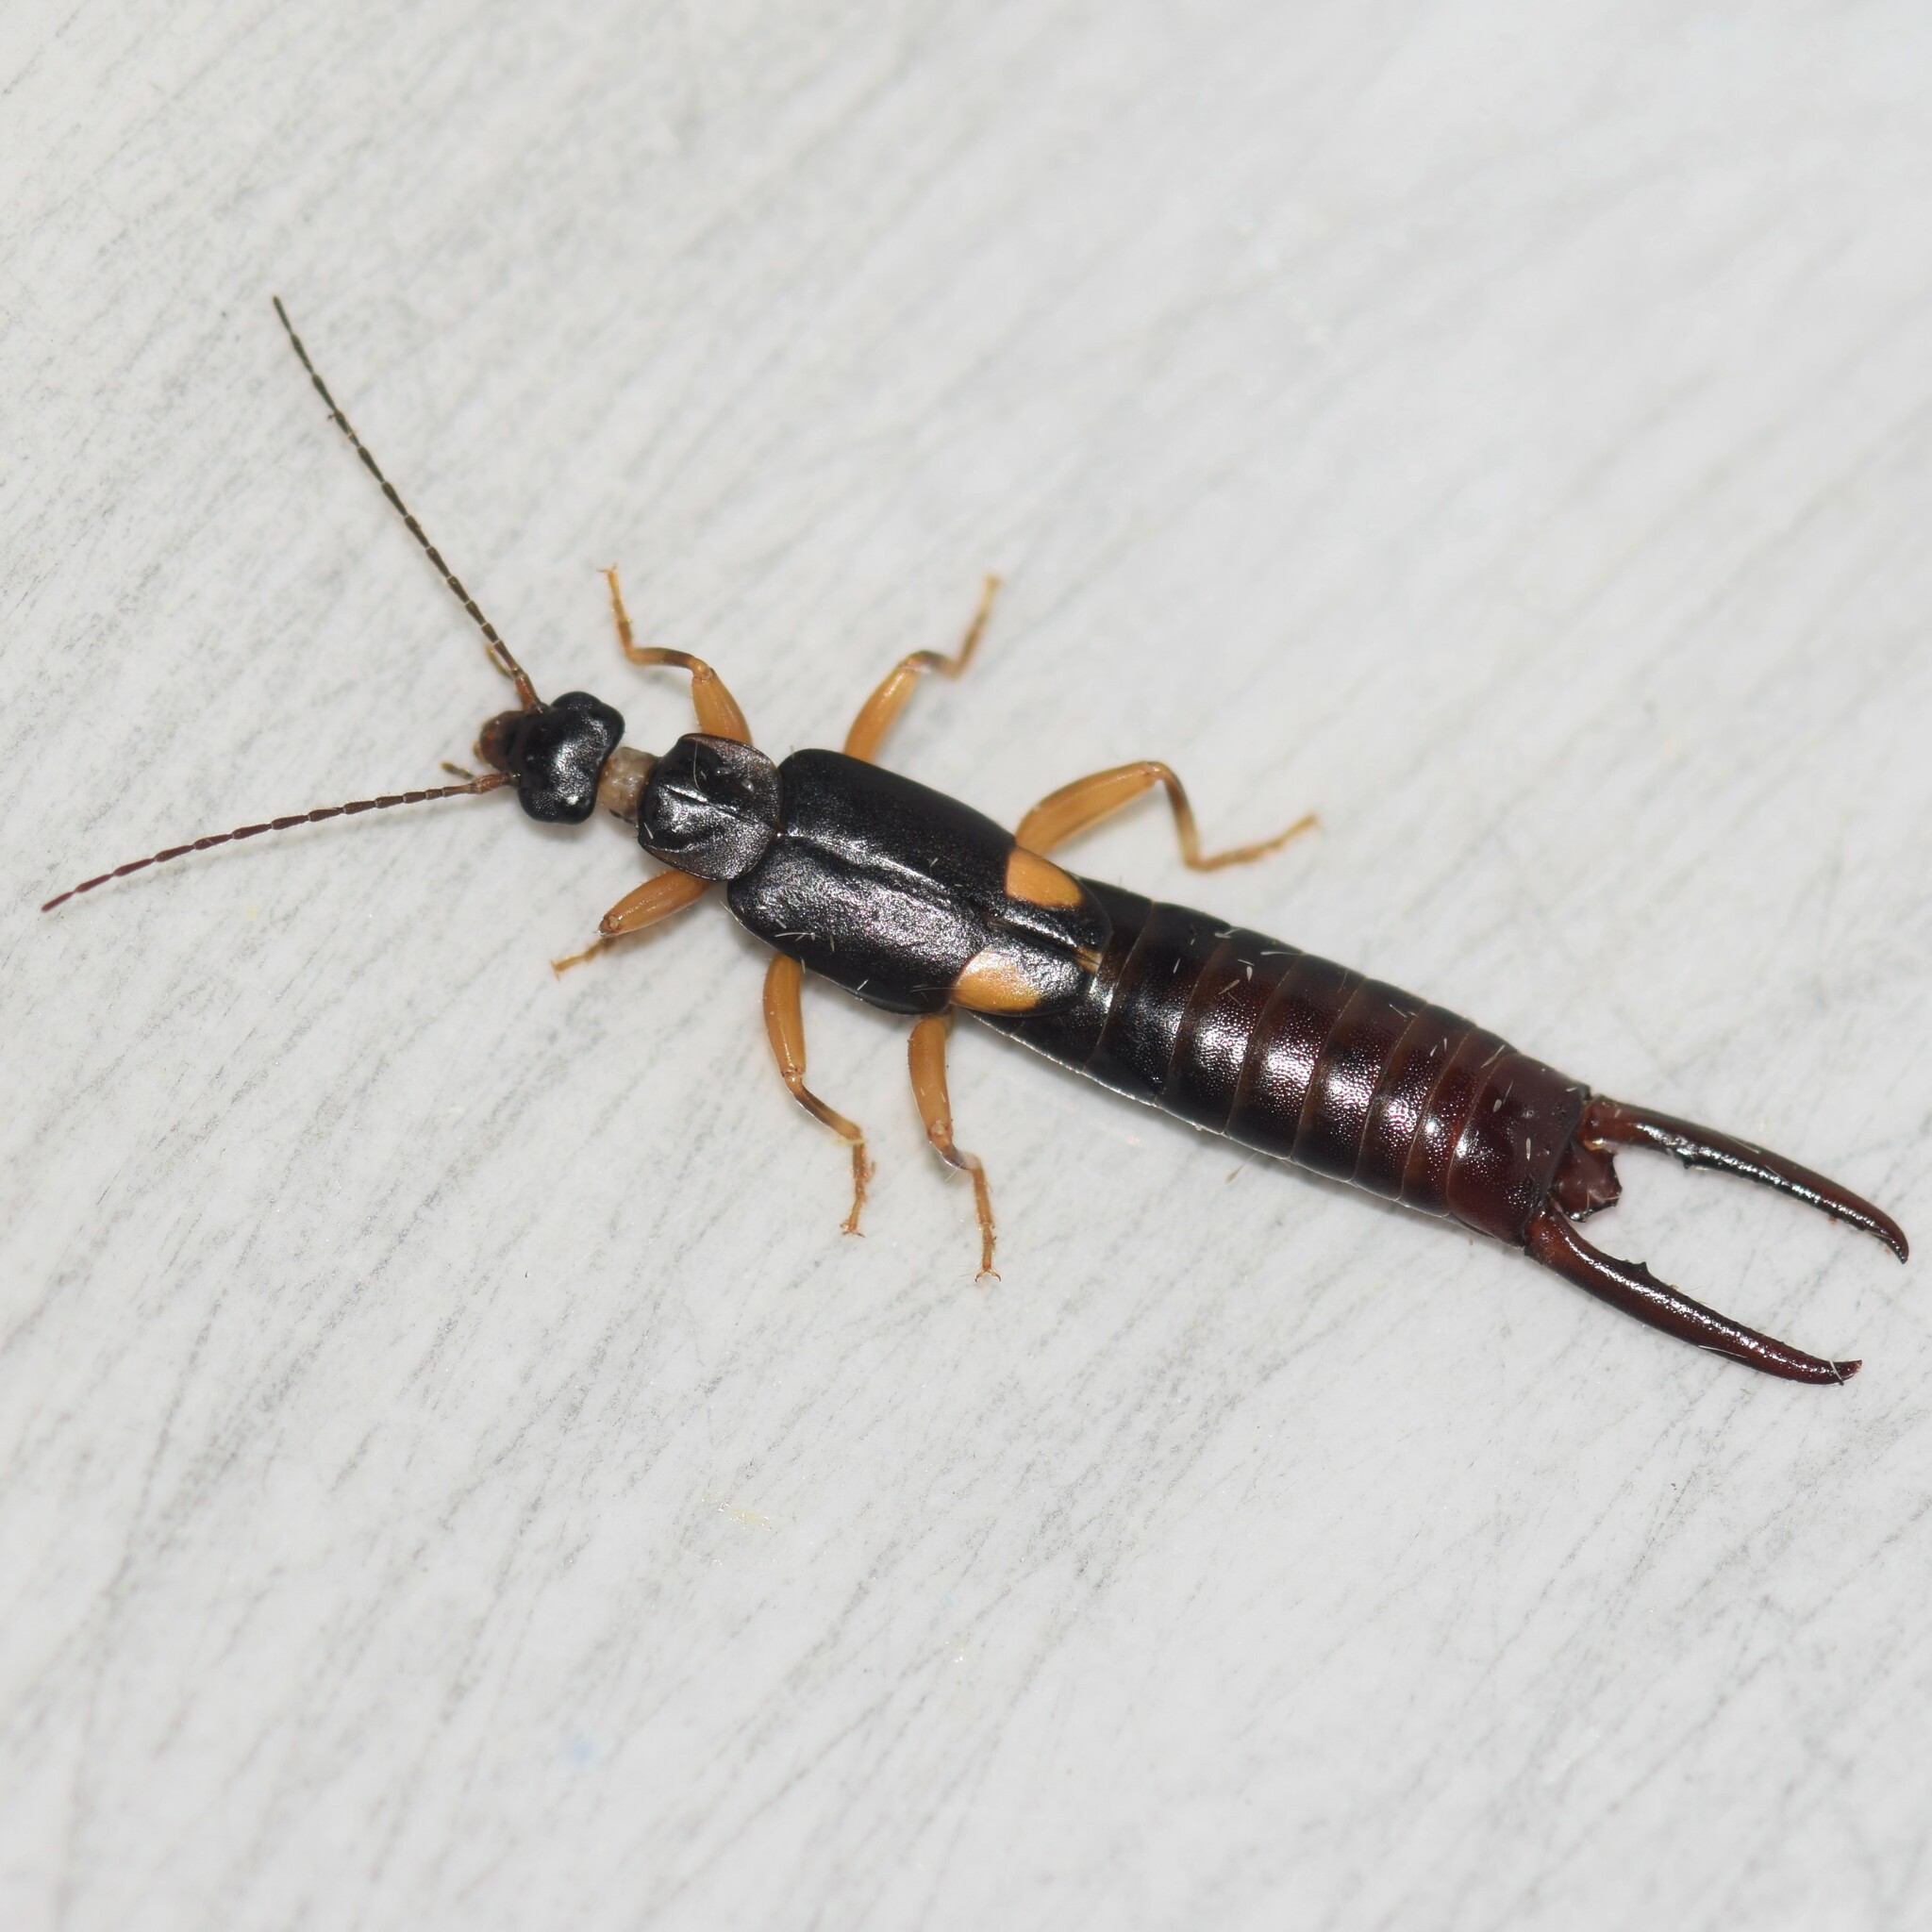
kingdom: Animalia
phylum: Arthropoda
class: Insecta
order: Dermaptera
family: Spongiphoridae
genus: Vostox
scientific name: Vostox brunneipennis
